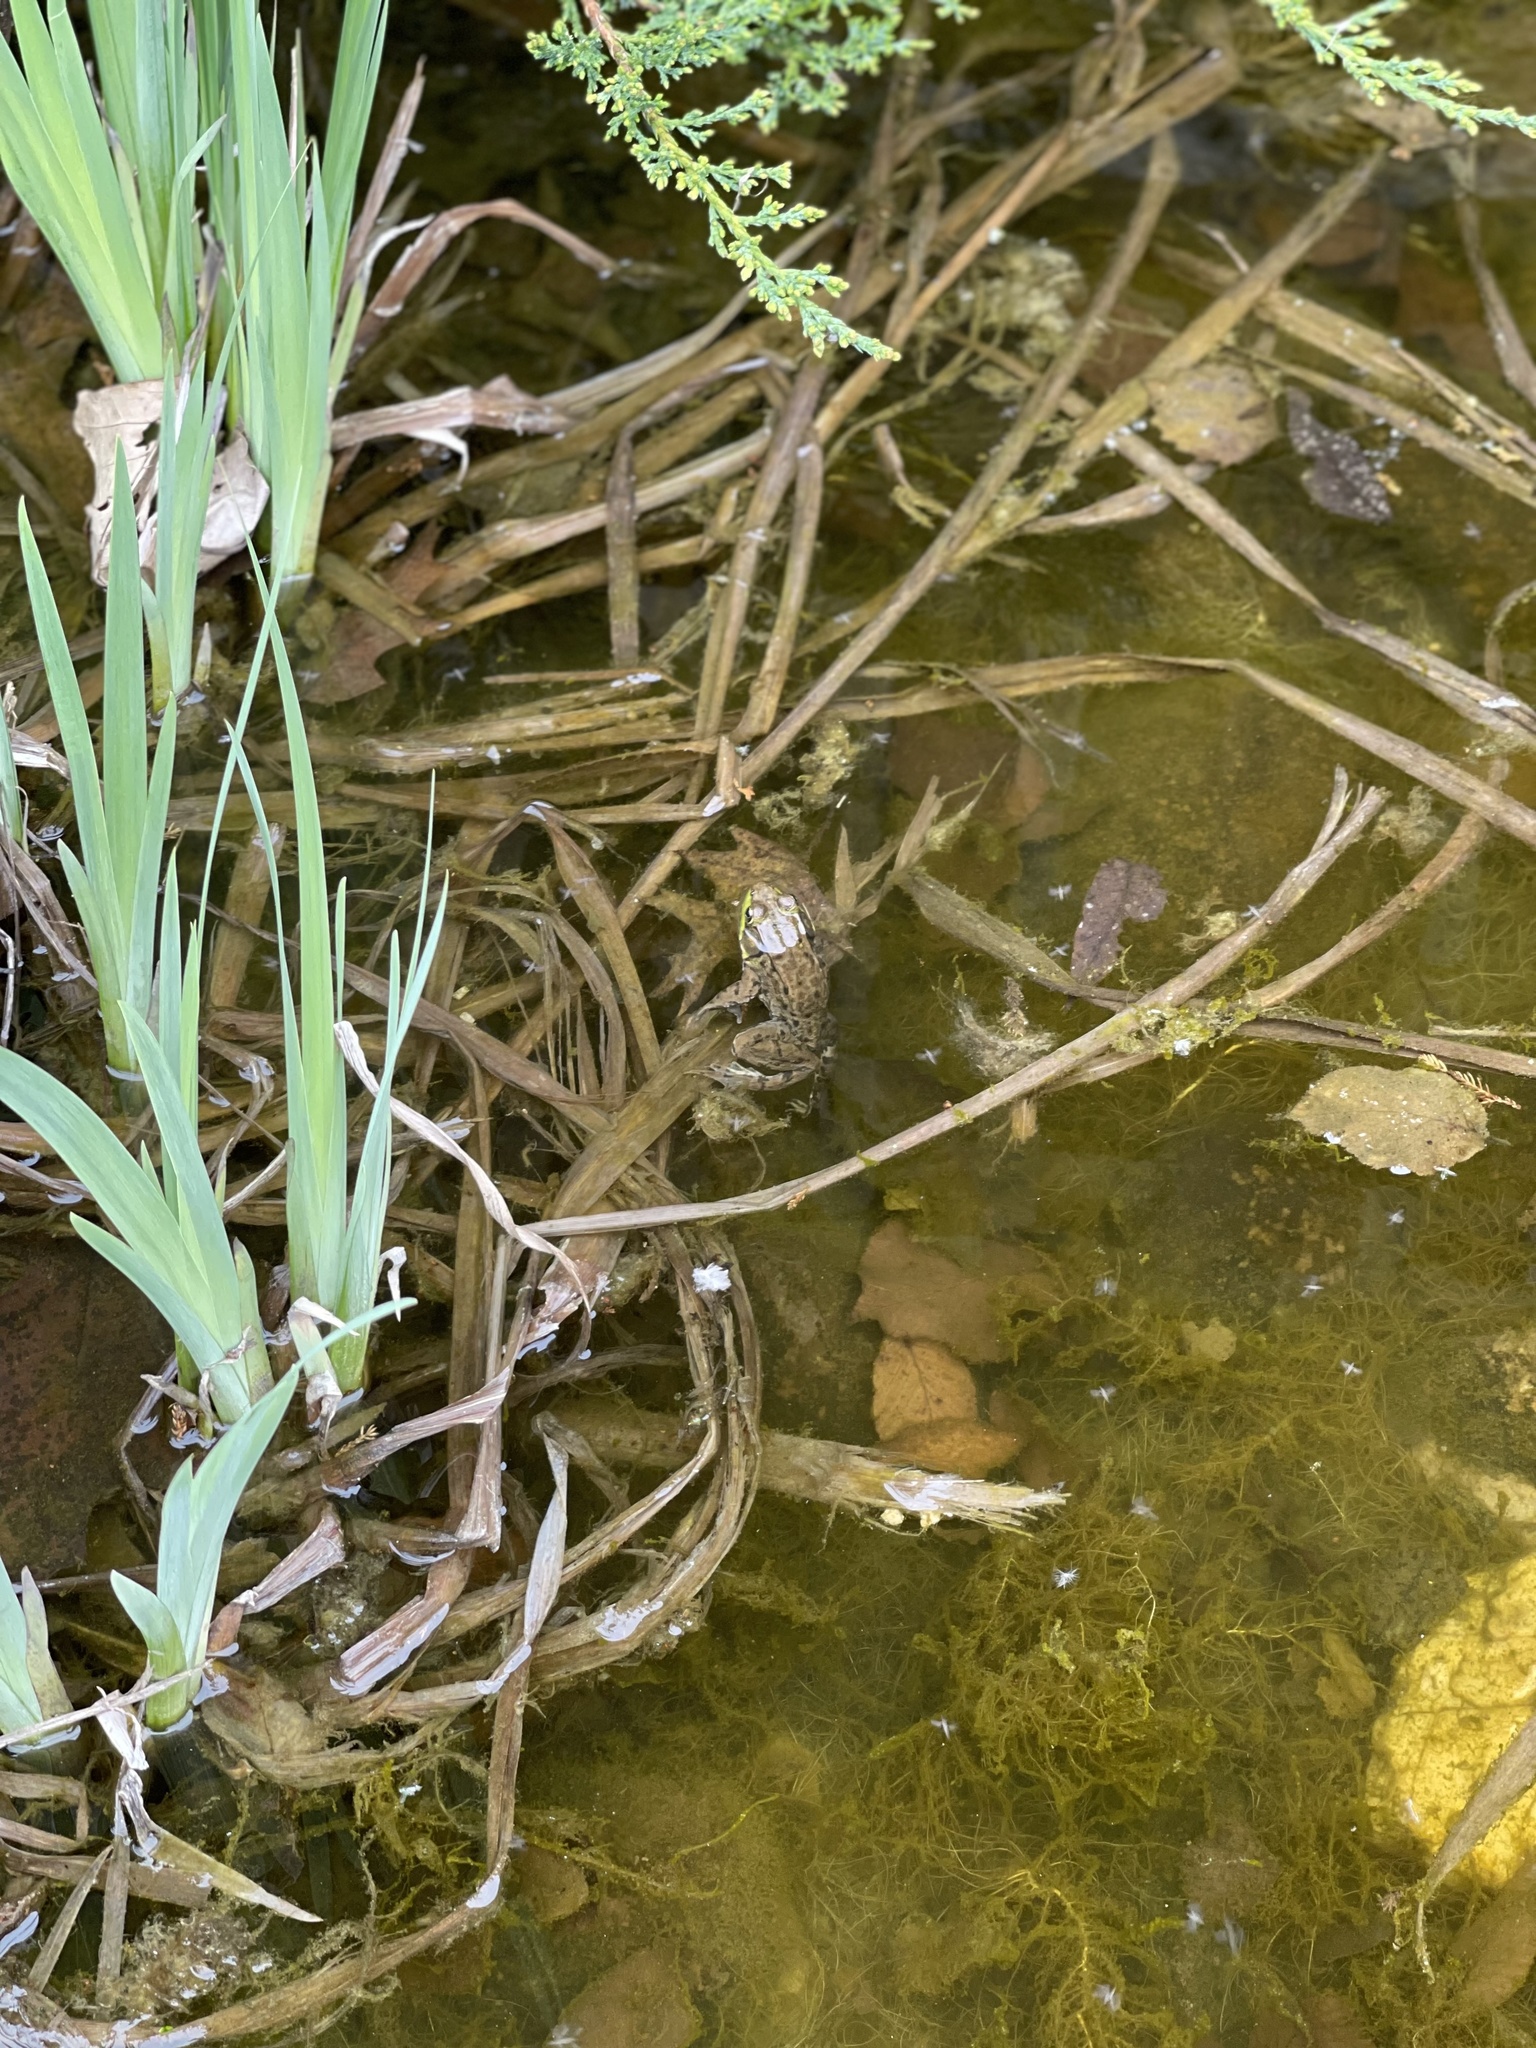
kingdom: Animalia
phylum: Chordata
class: Amphibia
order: Anura
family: Ranidae
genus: Lithobates
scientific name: Lithobates clamitans
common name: Green frog
